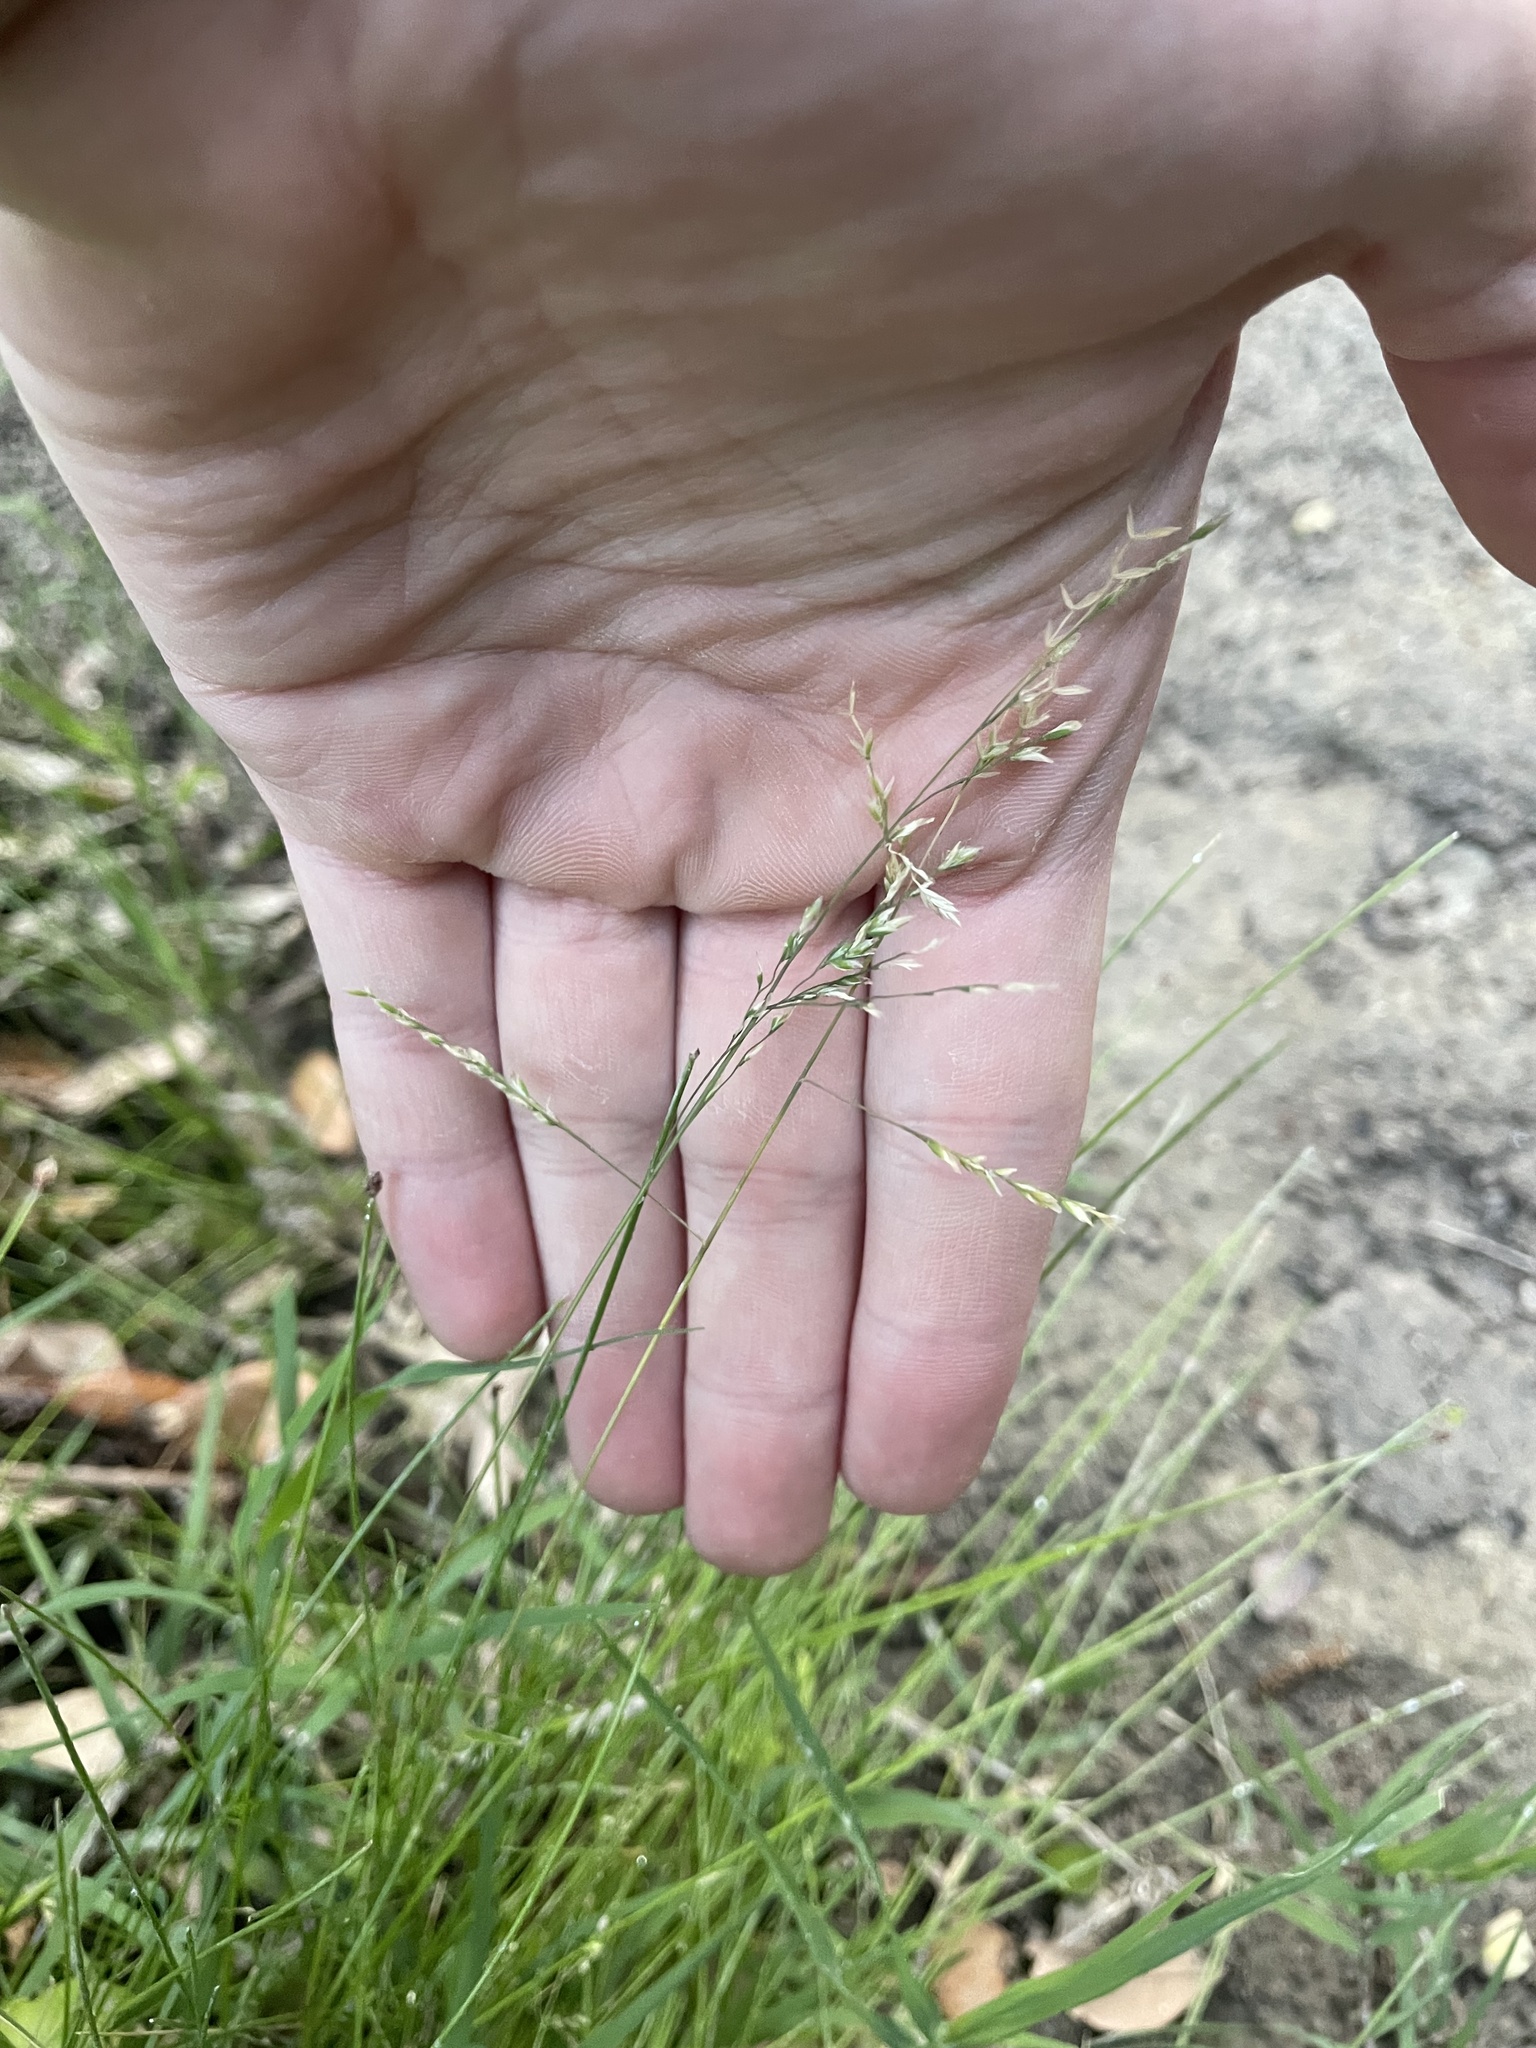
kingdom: Plantae
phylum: Tracheophyta
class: Liliopsida
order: Poales
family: Poaceae
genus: Poa
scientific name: Poa annua
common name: Annual bluegrass
